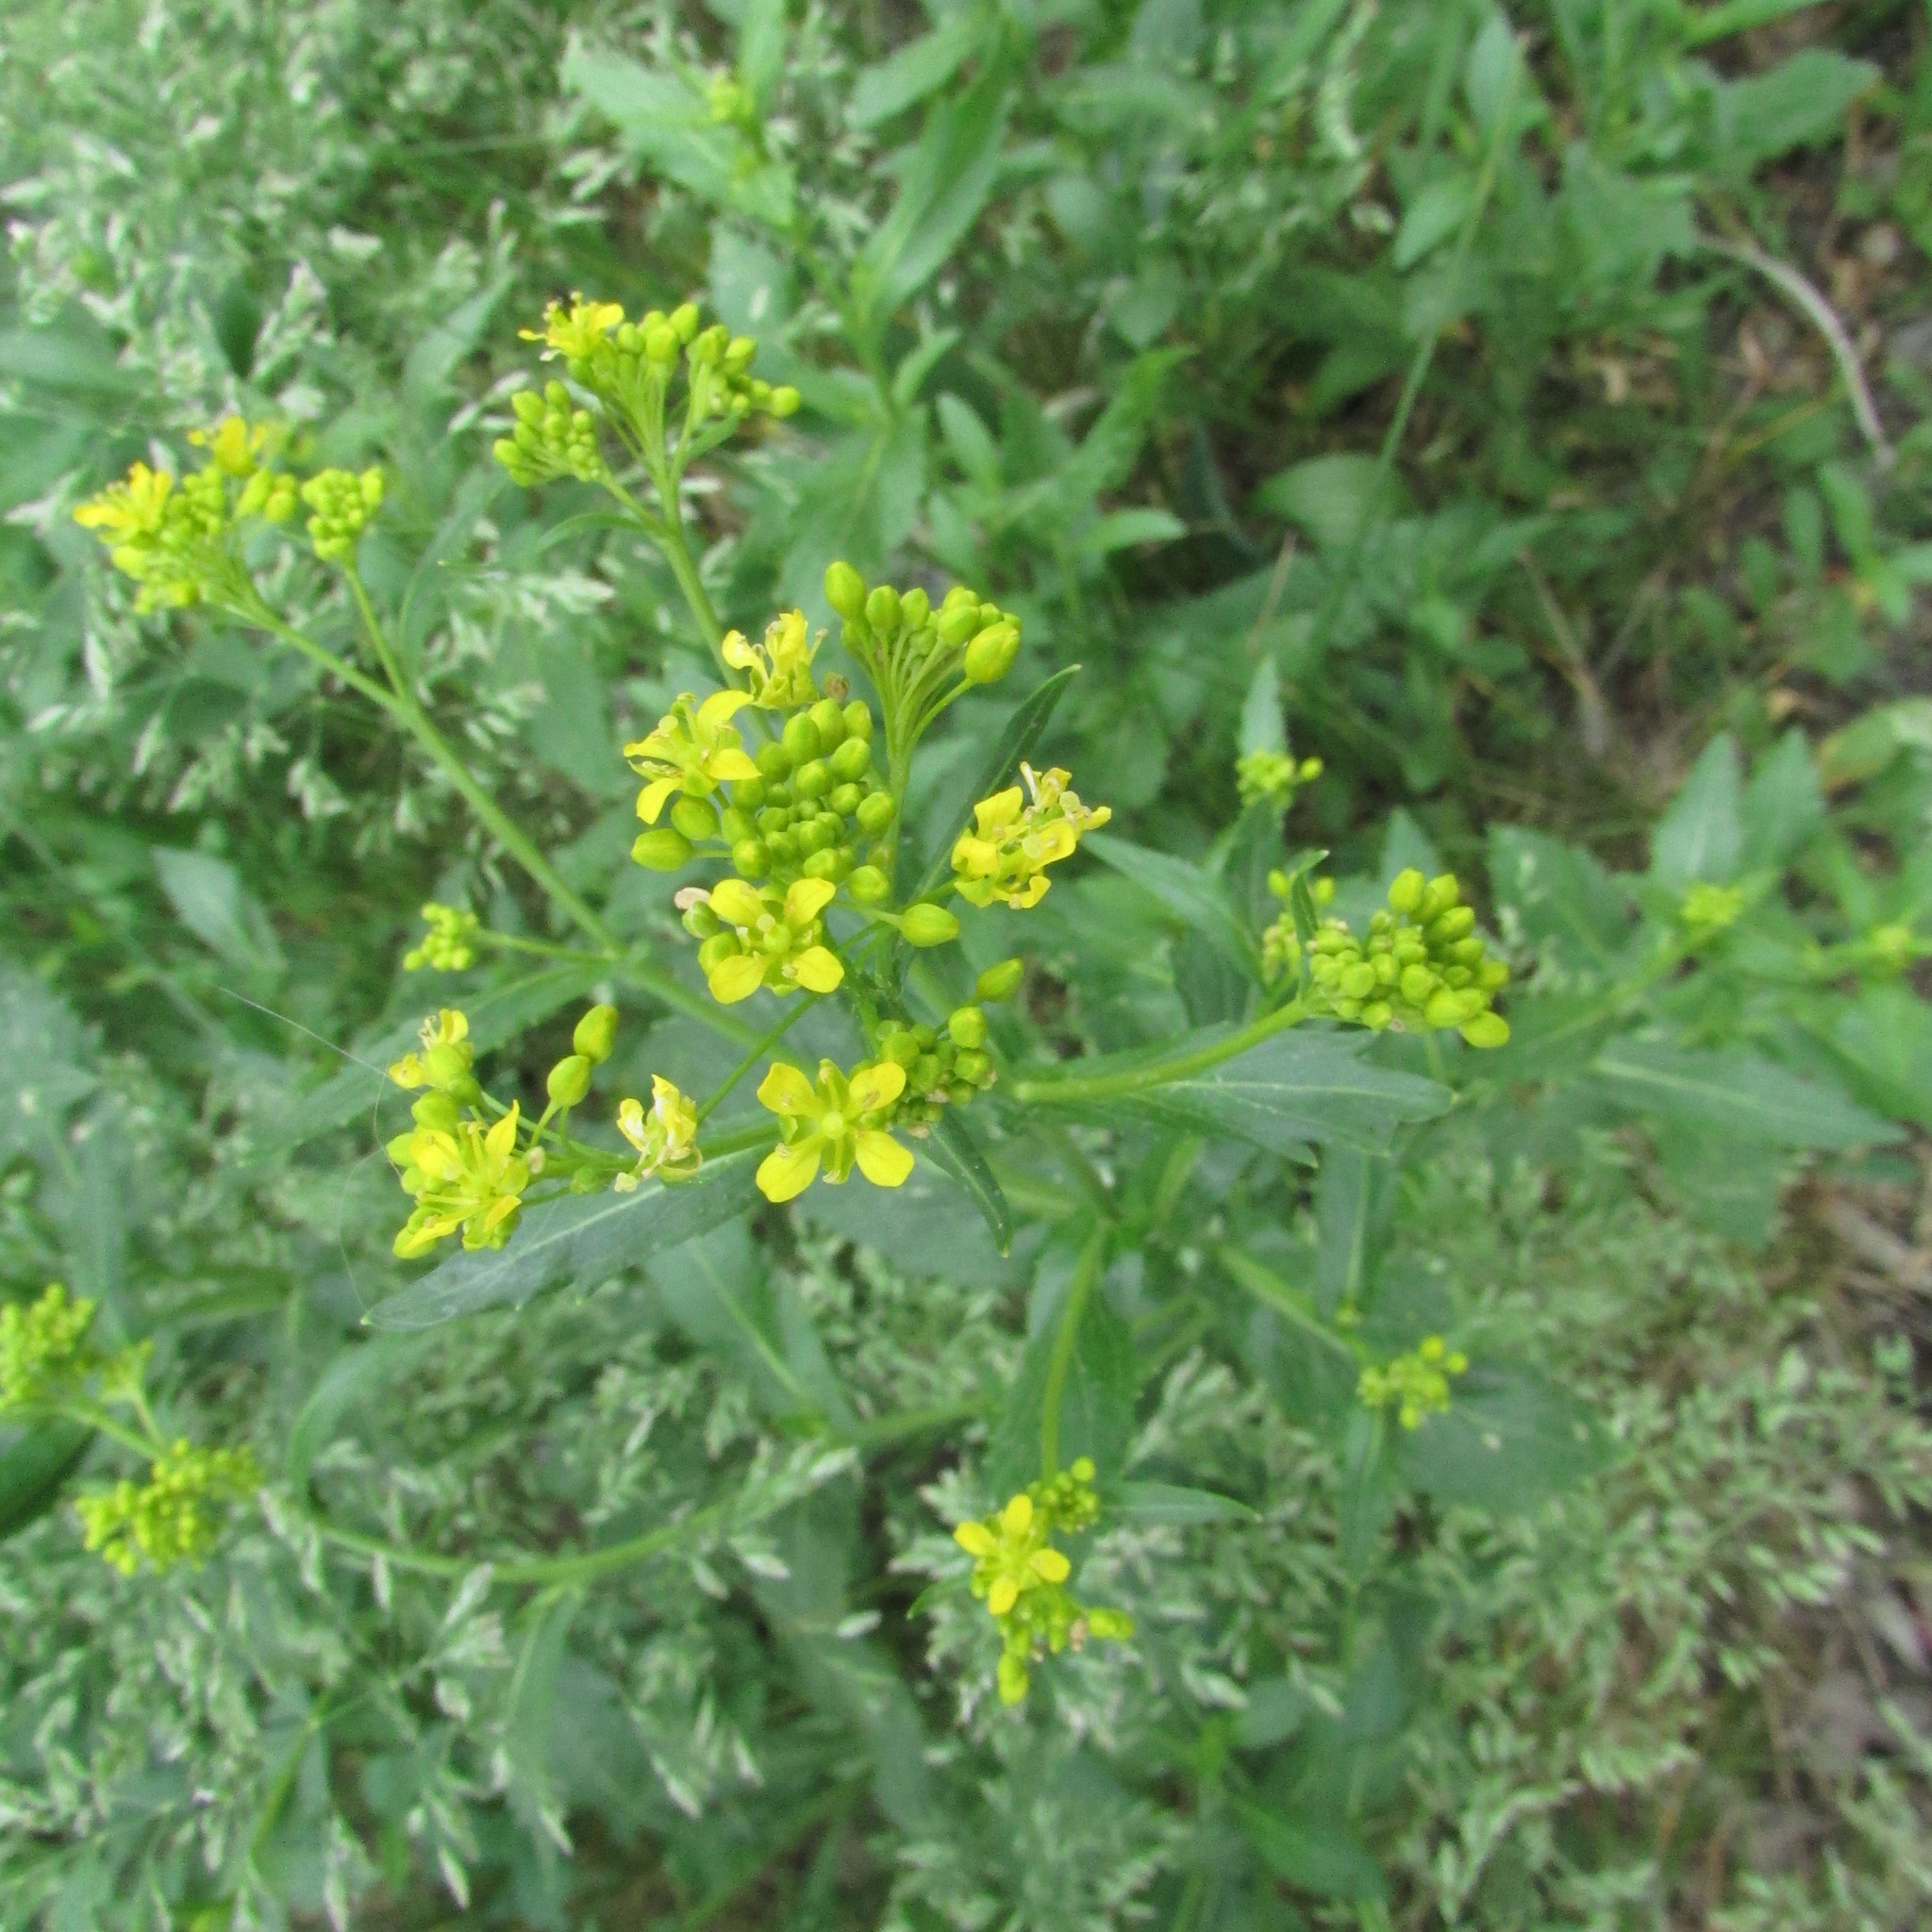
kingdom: Plantae
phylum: Tracheophyta
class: Magnoliopsida
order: Brassicales
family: Brassicaceae
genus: Rorippa
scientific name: Rorippa austriaca
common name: Austrian yellow-cress
